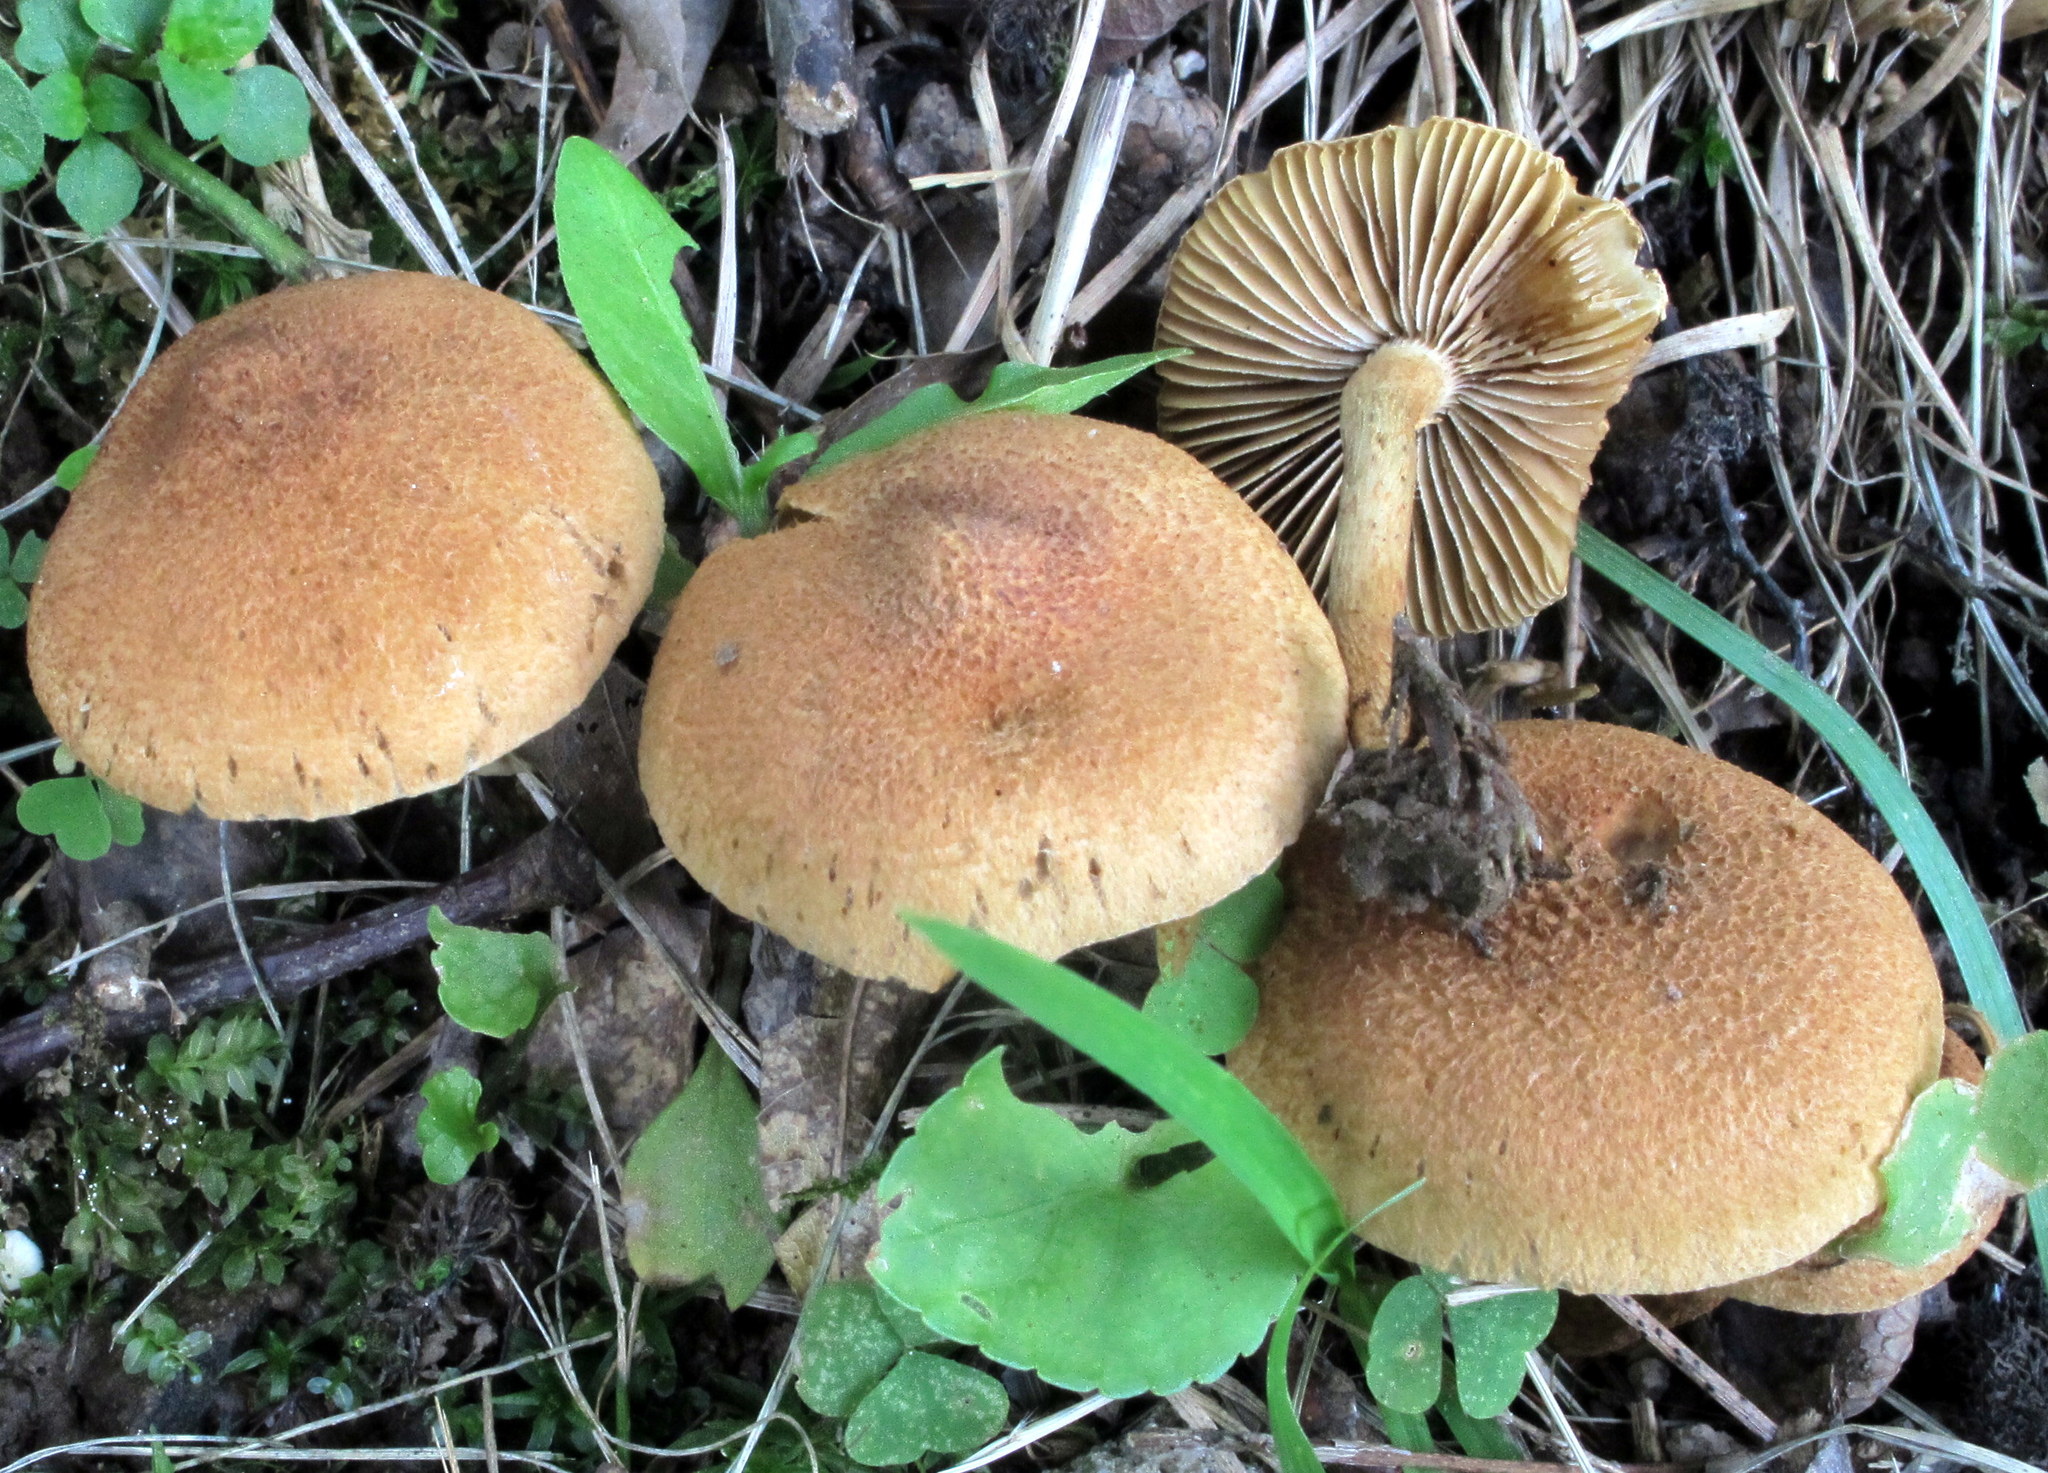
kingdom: Fungi
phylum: Basidiomycota
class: Agaricomycetes
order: Agaricales
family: Inocybaceae
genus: Mallocybe
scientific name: Mallocybe unicolor
